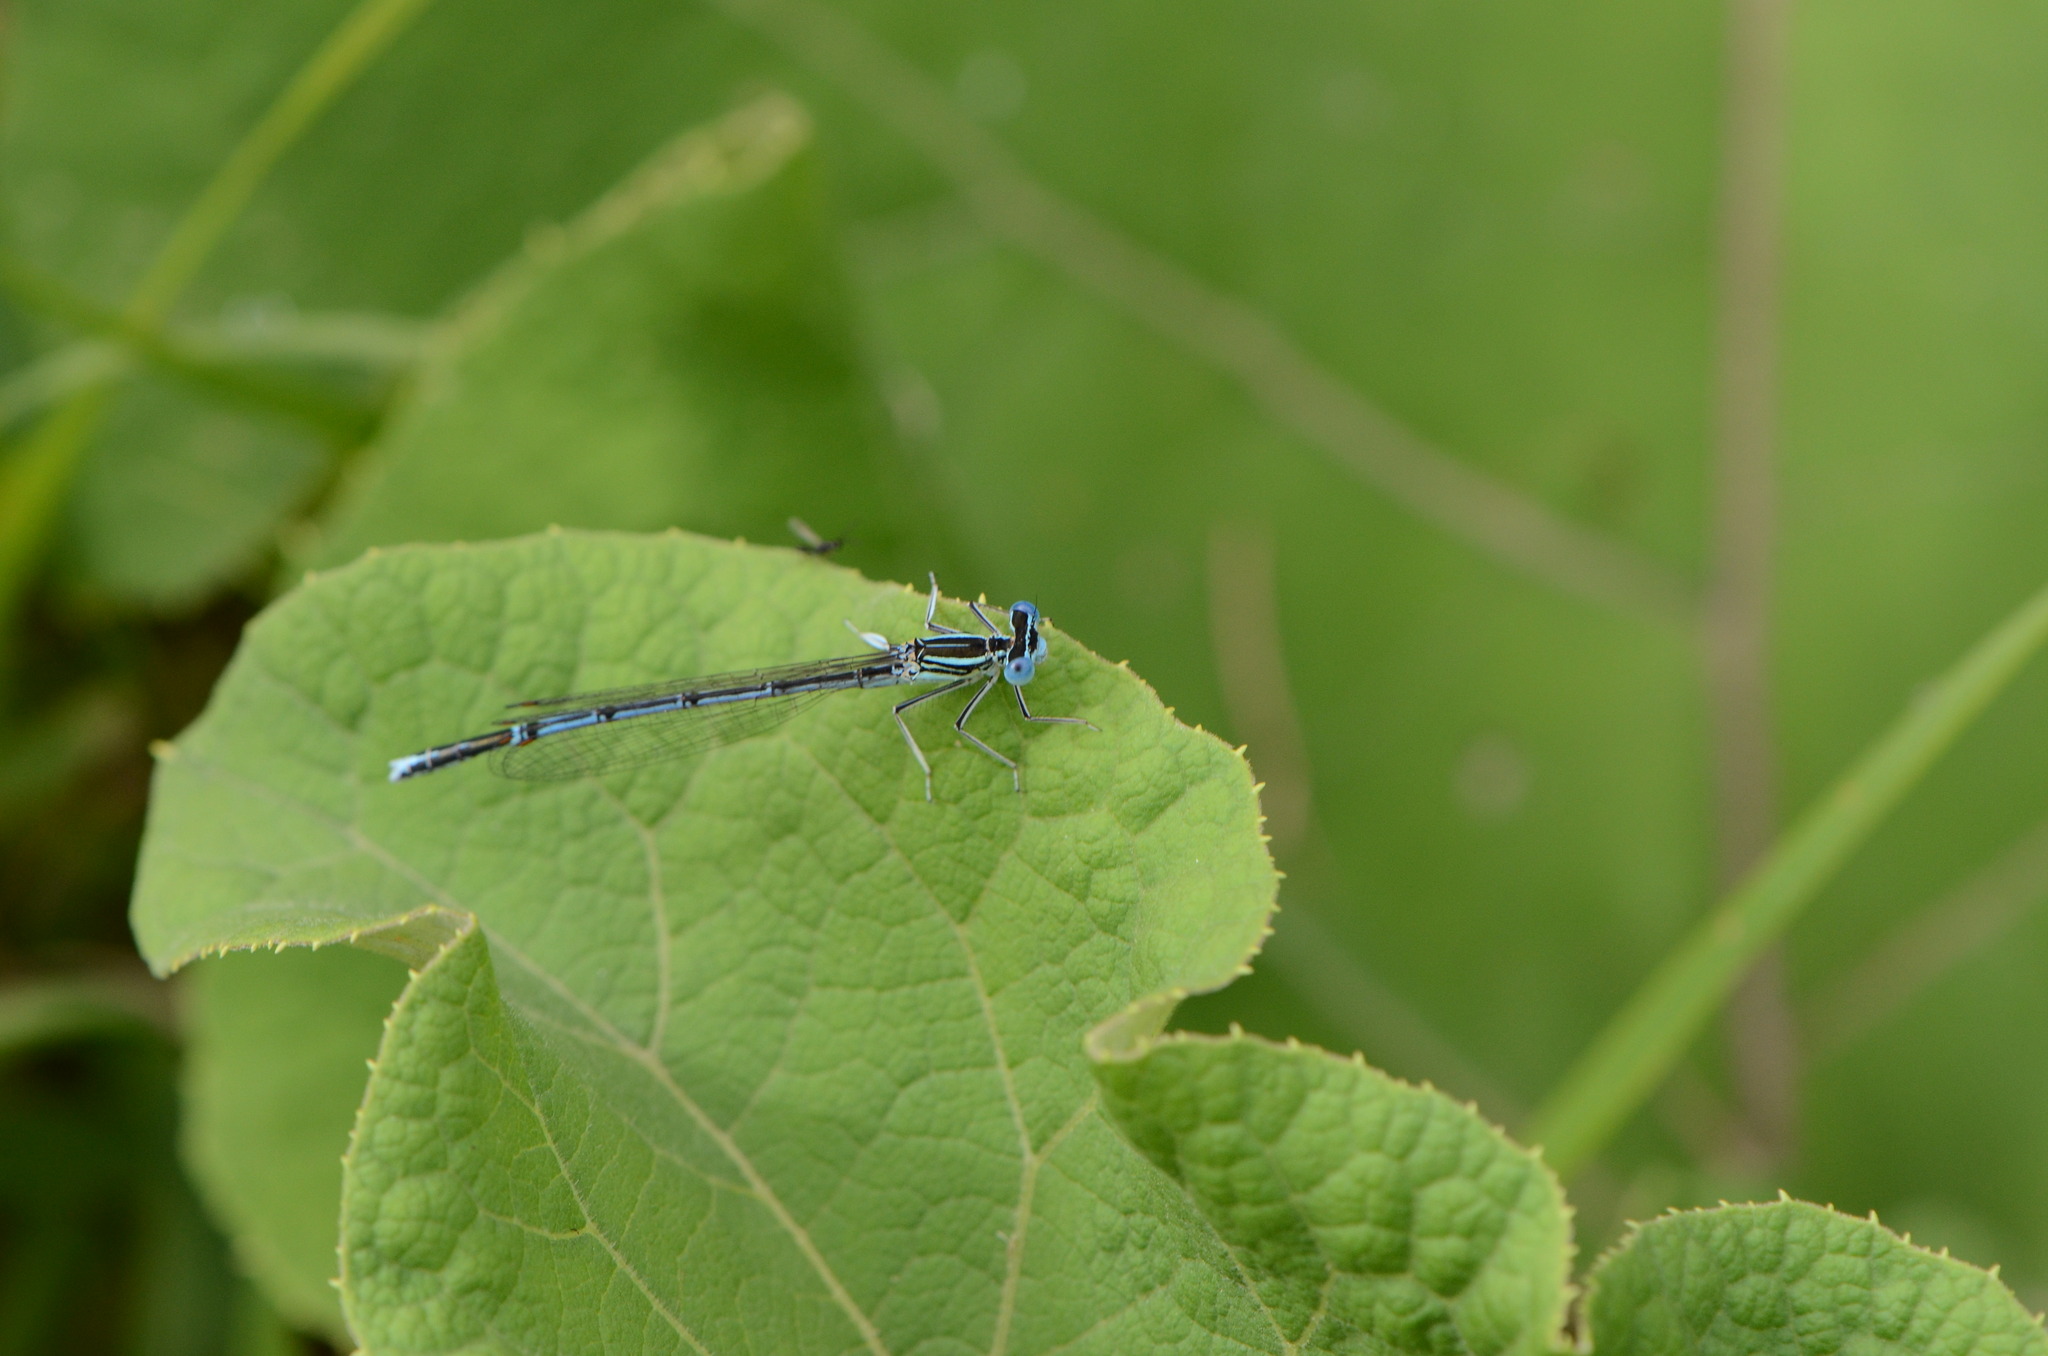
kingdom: Animalia
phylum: Arthropoda
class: Insecta
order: Odonata
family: Platycnemididae
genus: Platycnemis
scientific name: Platycnemis pennipes
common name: White-legged damselfly
